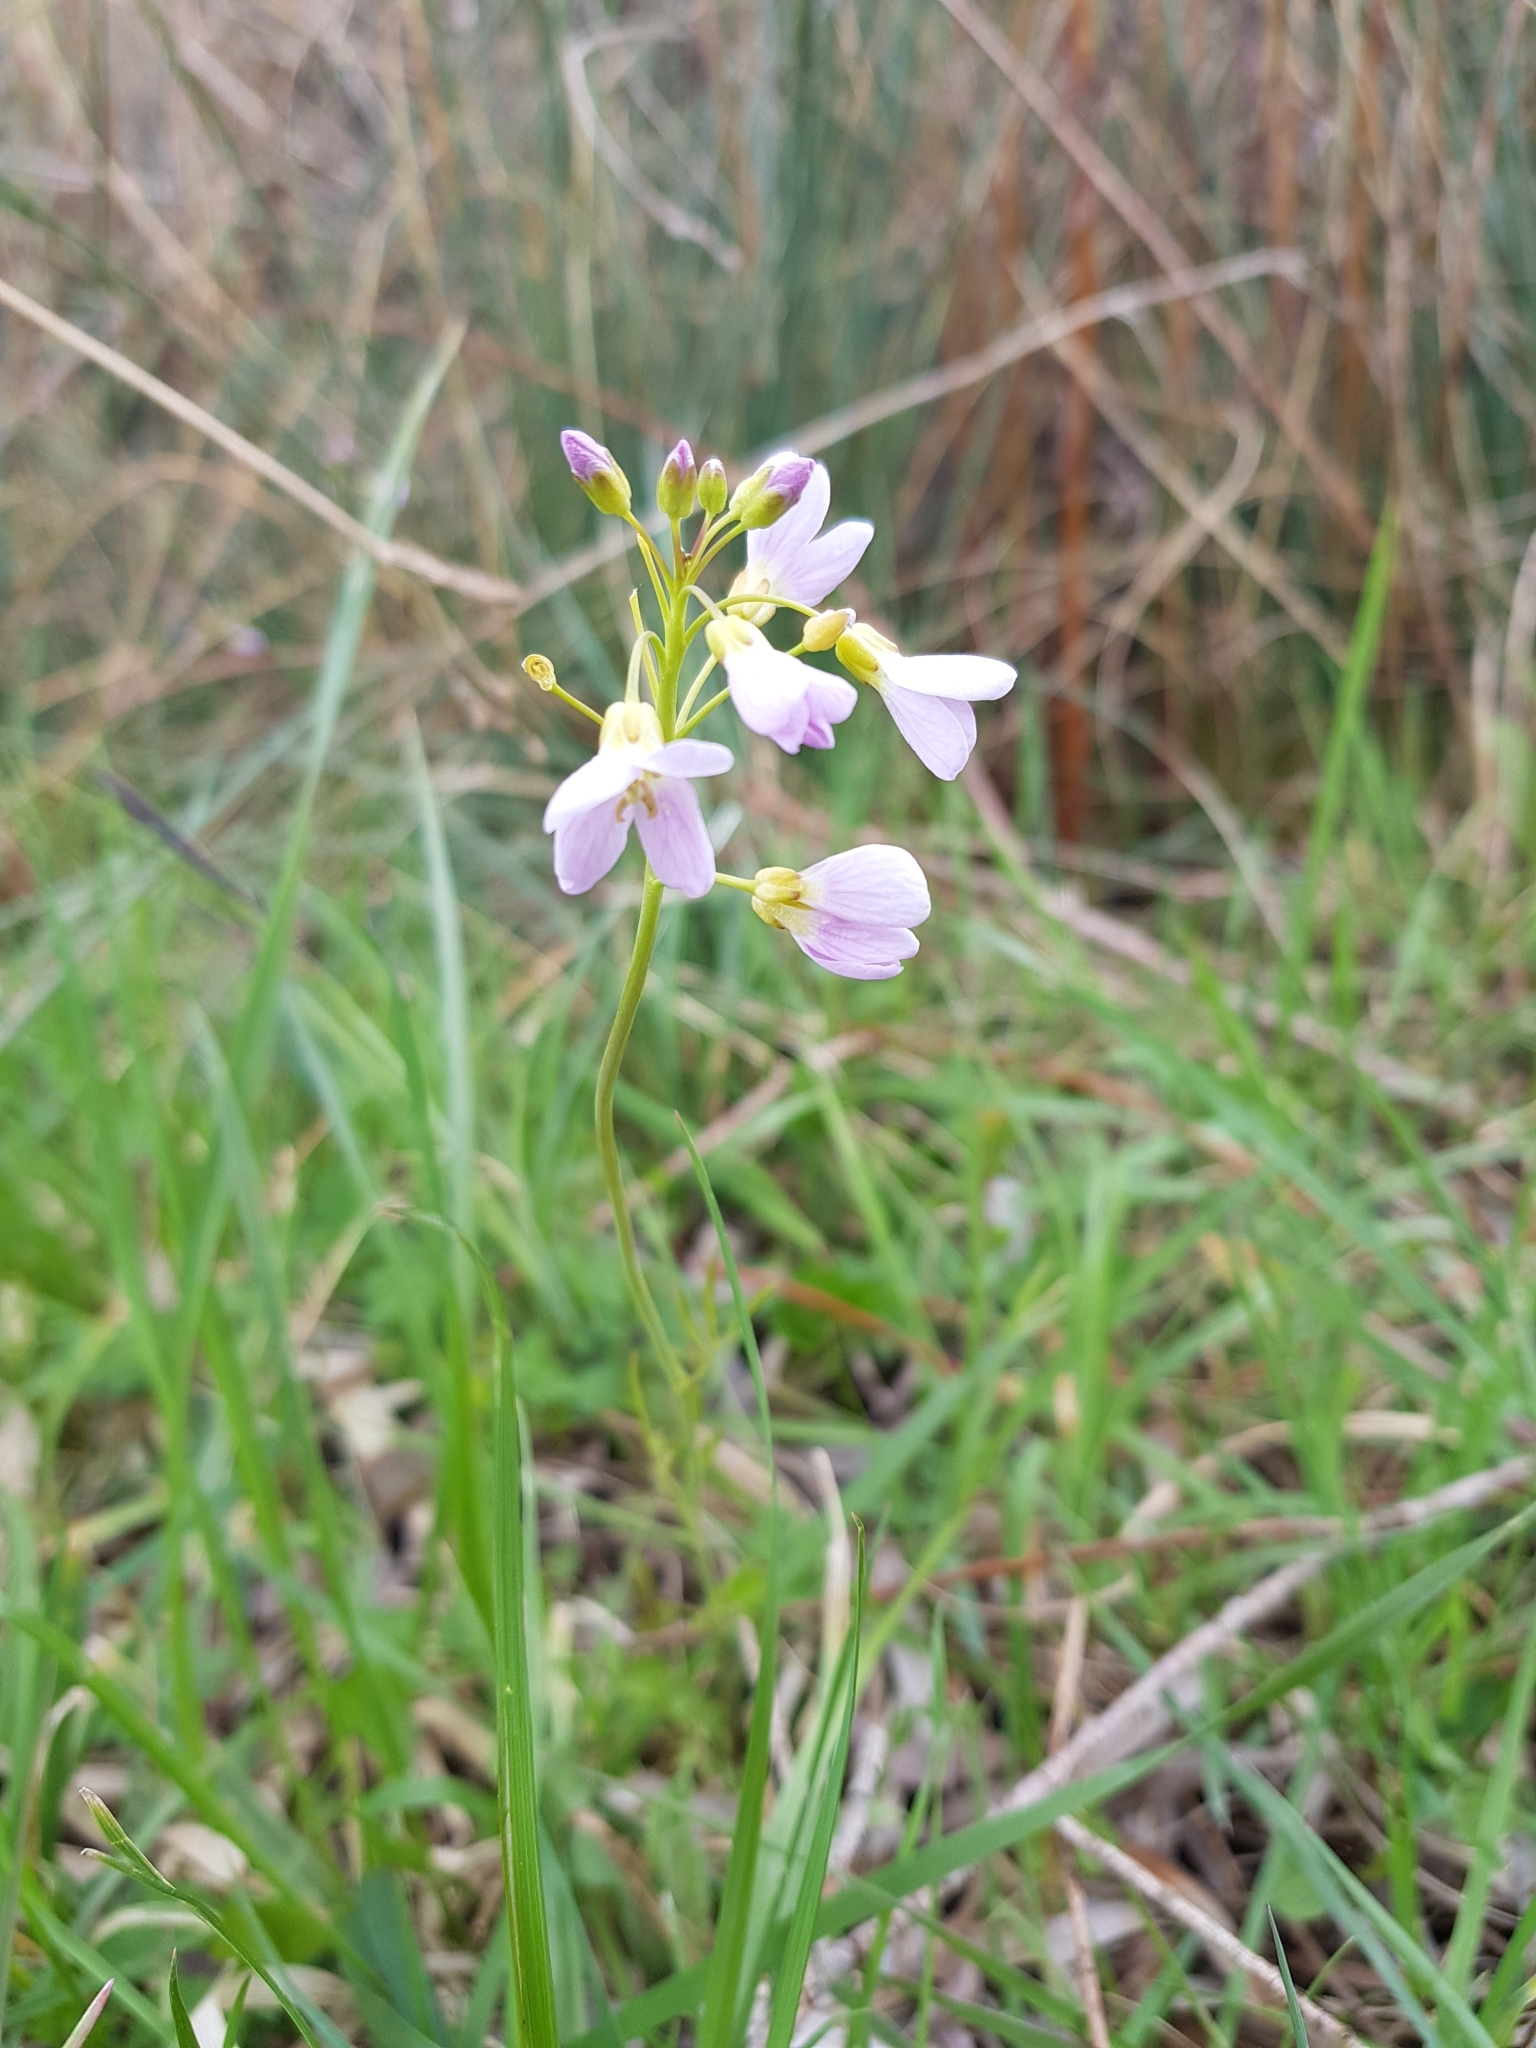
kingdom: Plantae
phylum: Tracheophyta
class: Magnoliopsida
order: Brassicales
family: Brassicaceae
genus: Cardamine
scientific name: Cardamine pratensis
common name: Cuckoo flower
